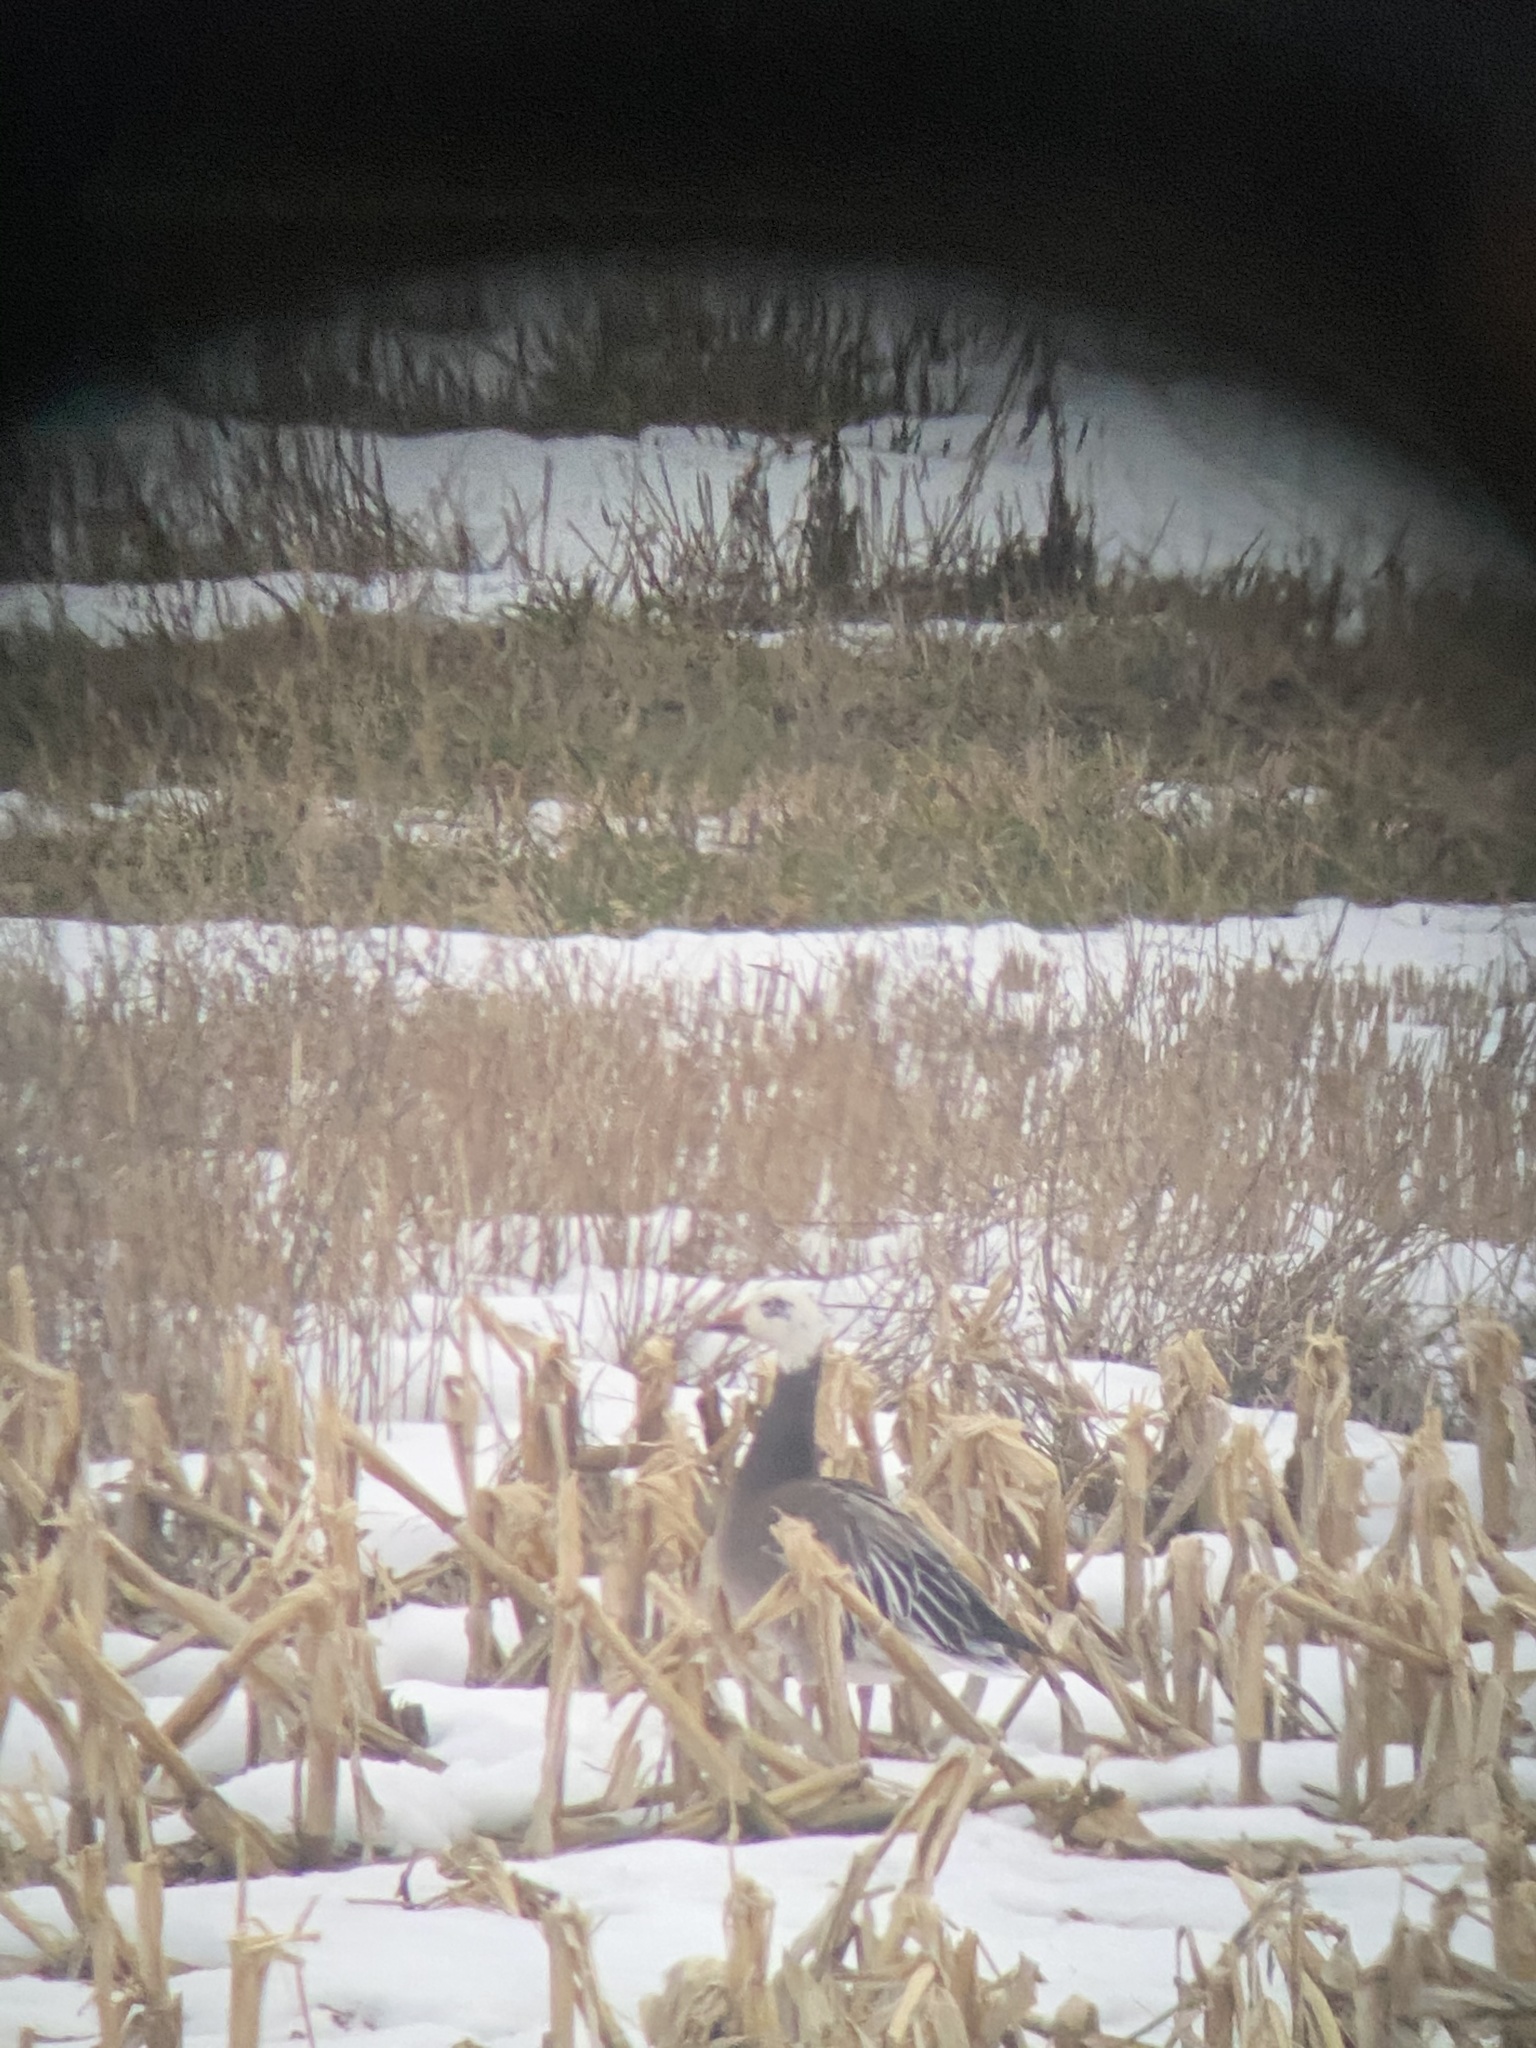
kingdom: Animalia
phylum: Chordata
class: Aves
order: Anseriformes
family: Anatidae
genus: Anser
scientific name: Anser caerulescens
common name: Snow goose
